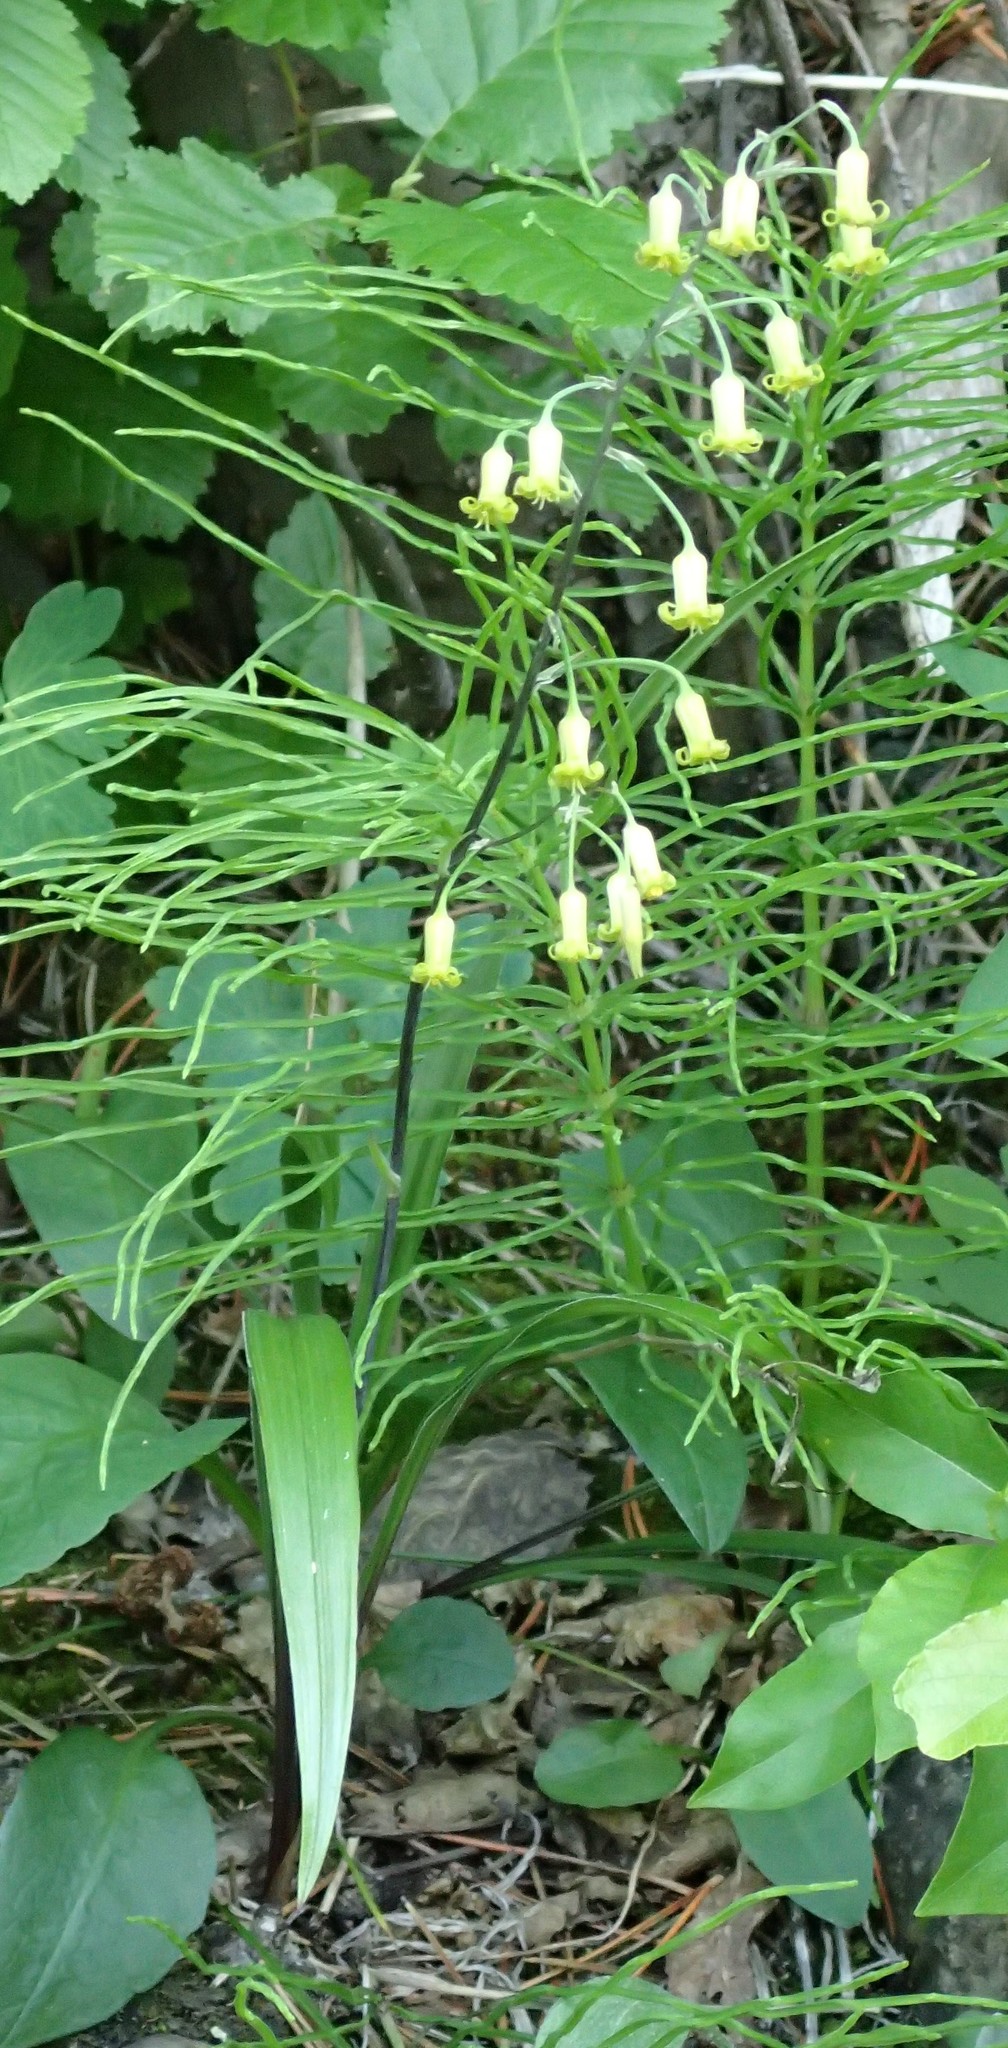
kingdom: Plantae
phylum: Tracheophyta
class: Liliopsida
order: Liliales
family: Melanthiaceae
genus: Anticlea
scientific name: Anticlea occidentalis
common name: Bronze-bells
